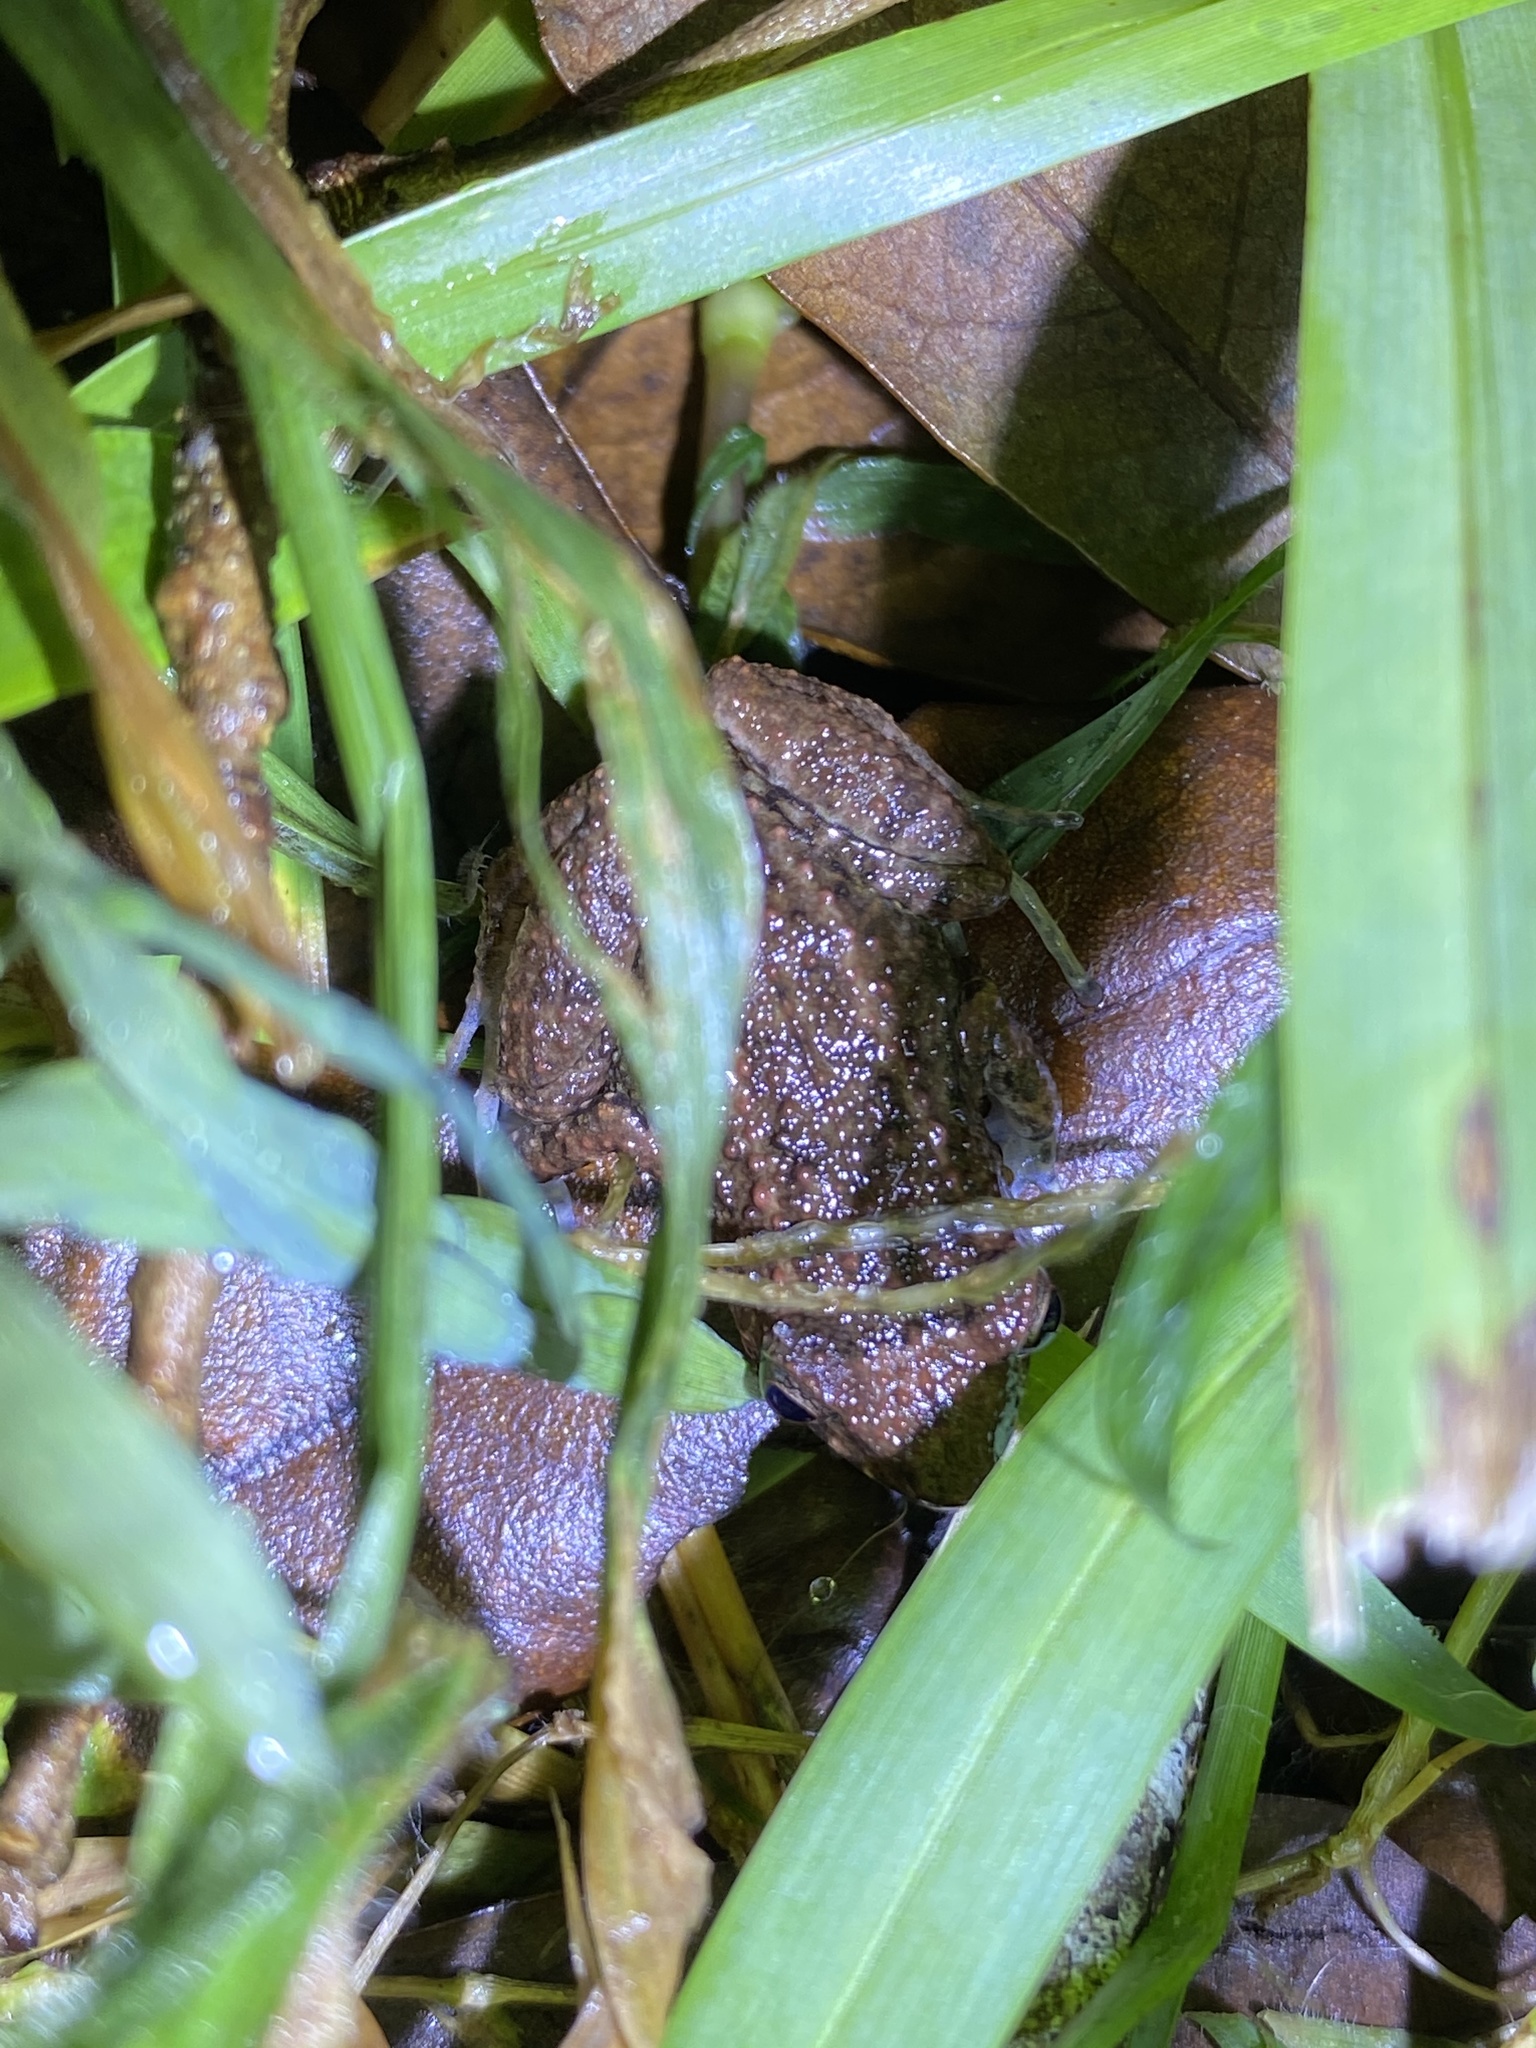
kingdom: Animalia
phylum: Chordata
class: Amphibia
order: Anura
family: Eleutherodactylidae
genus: Eleutherodactylus
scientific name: Eleutherodactylus planirostris
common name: Greenhouse frog
